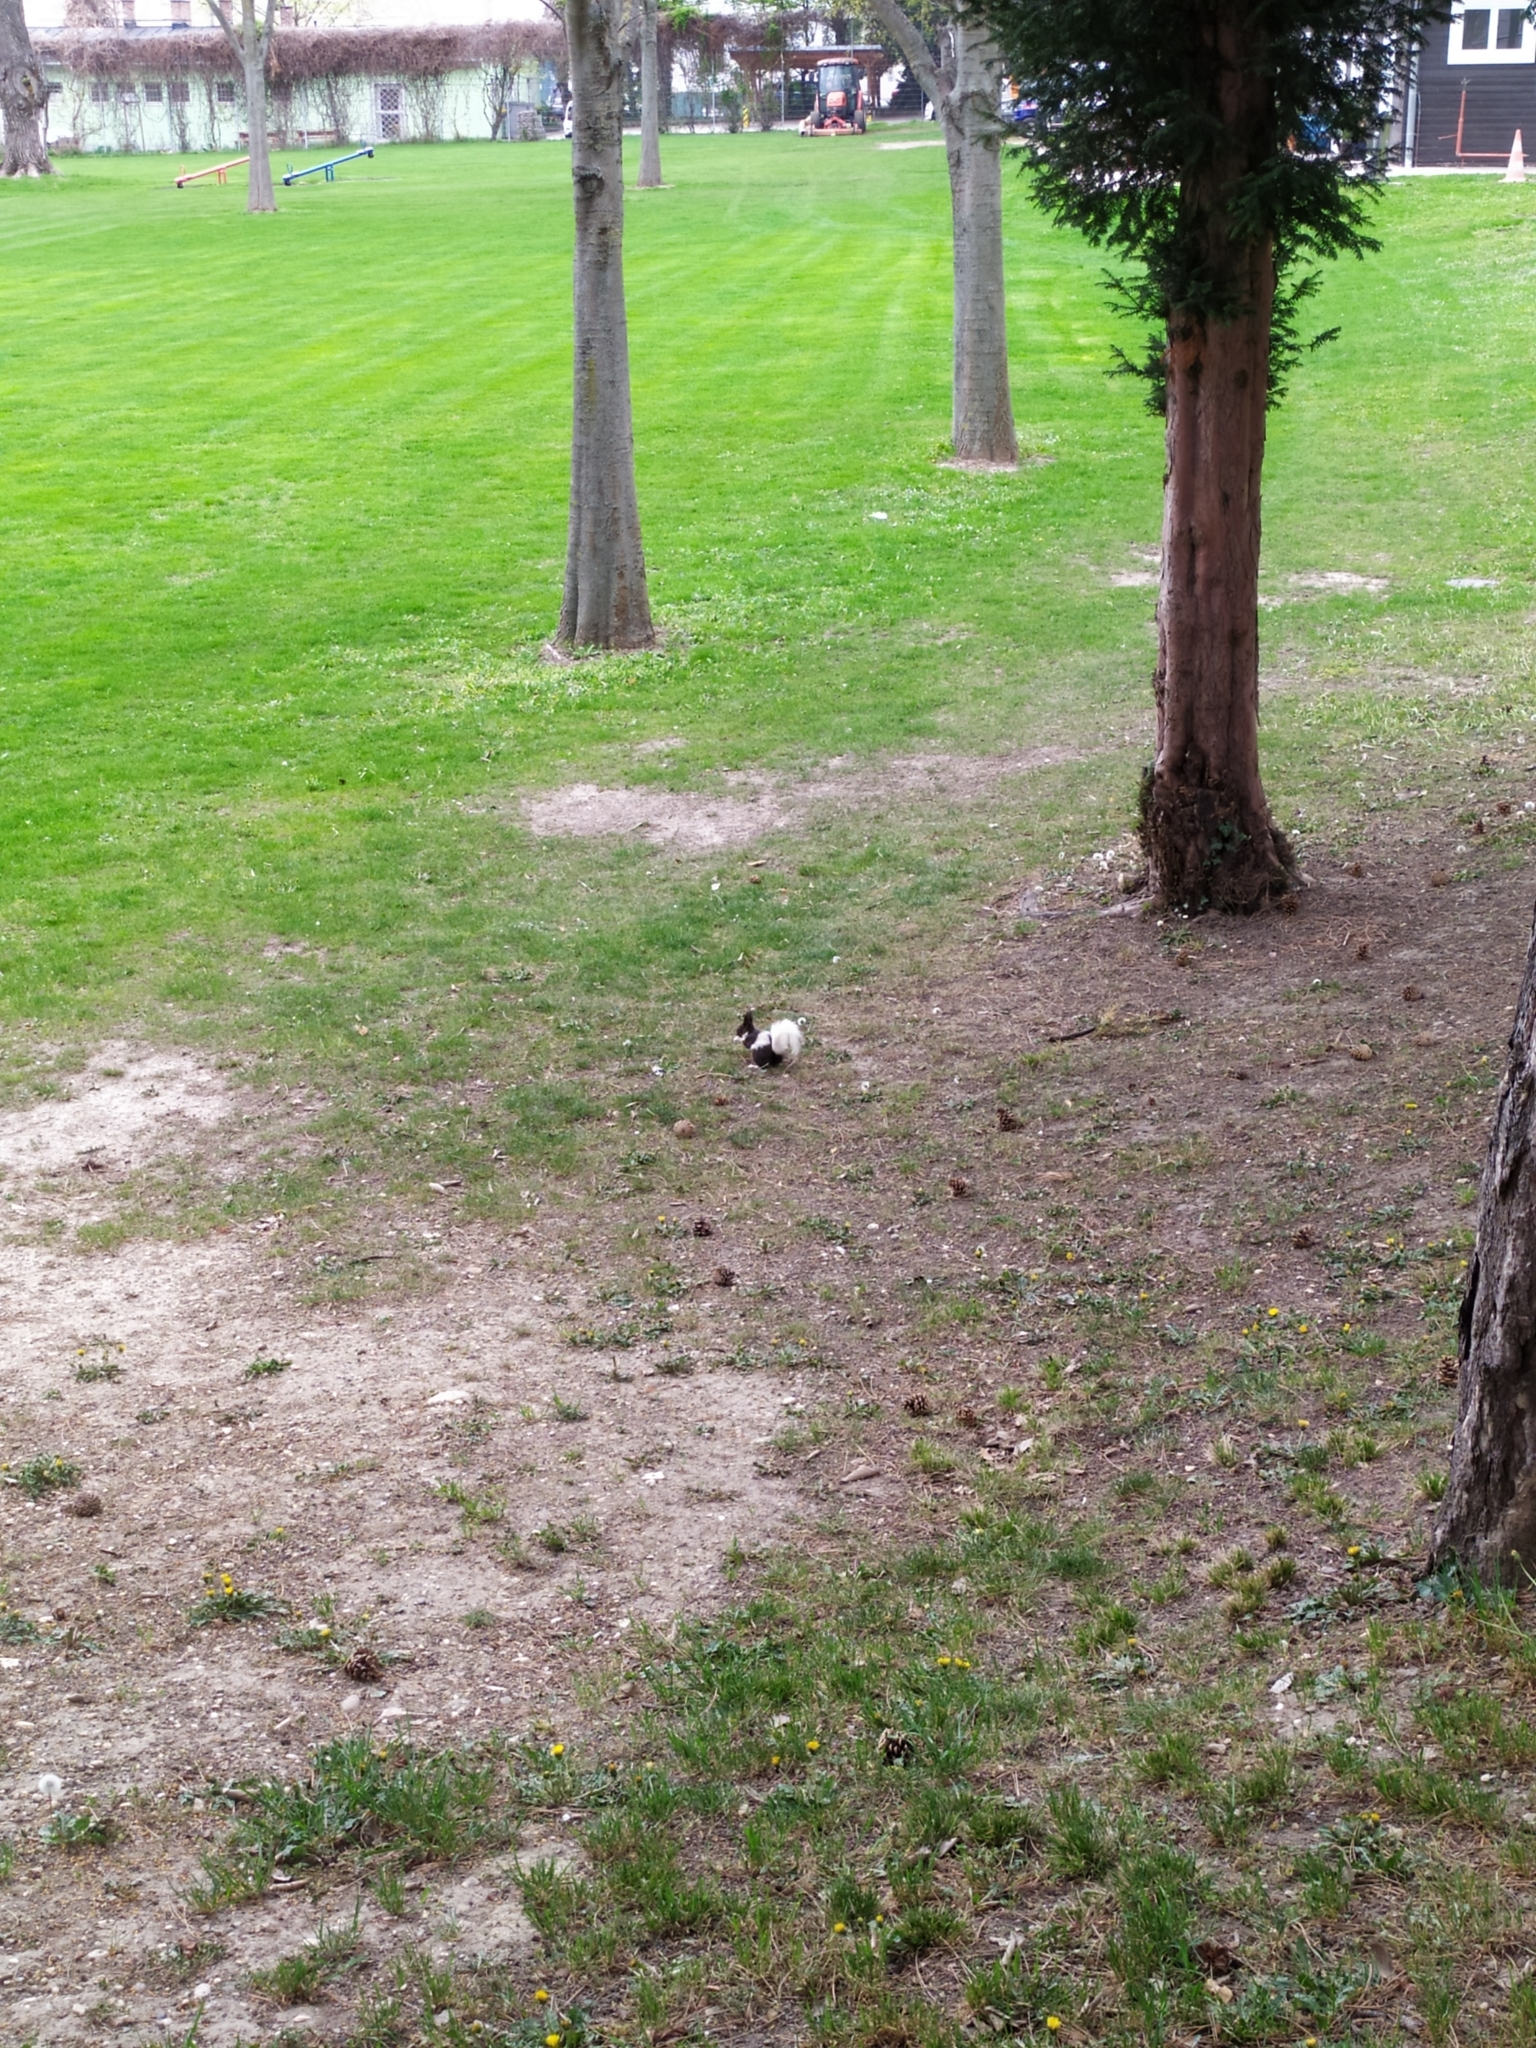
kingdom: Animalia
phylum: Chordata
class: Mammalia
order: Rodentia
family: Sciuridae
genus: Sciurus
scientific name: Sciurus vulgaris
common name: Eurasian red squirrel
